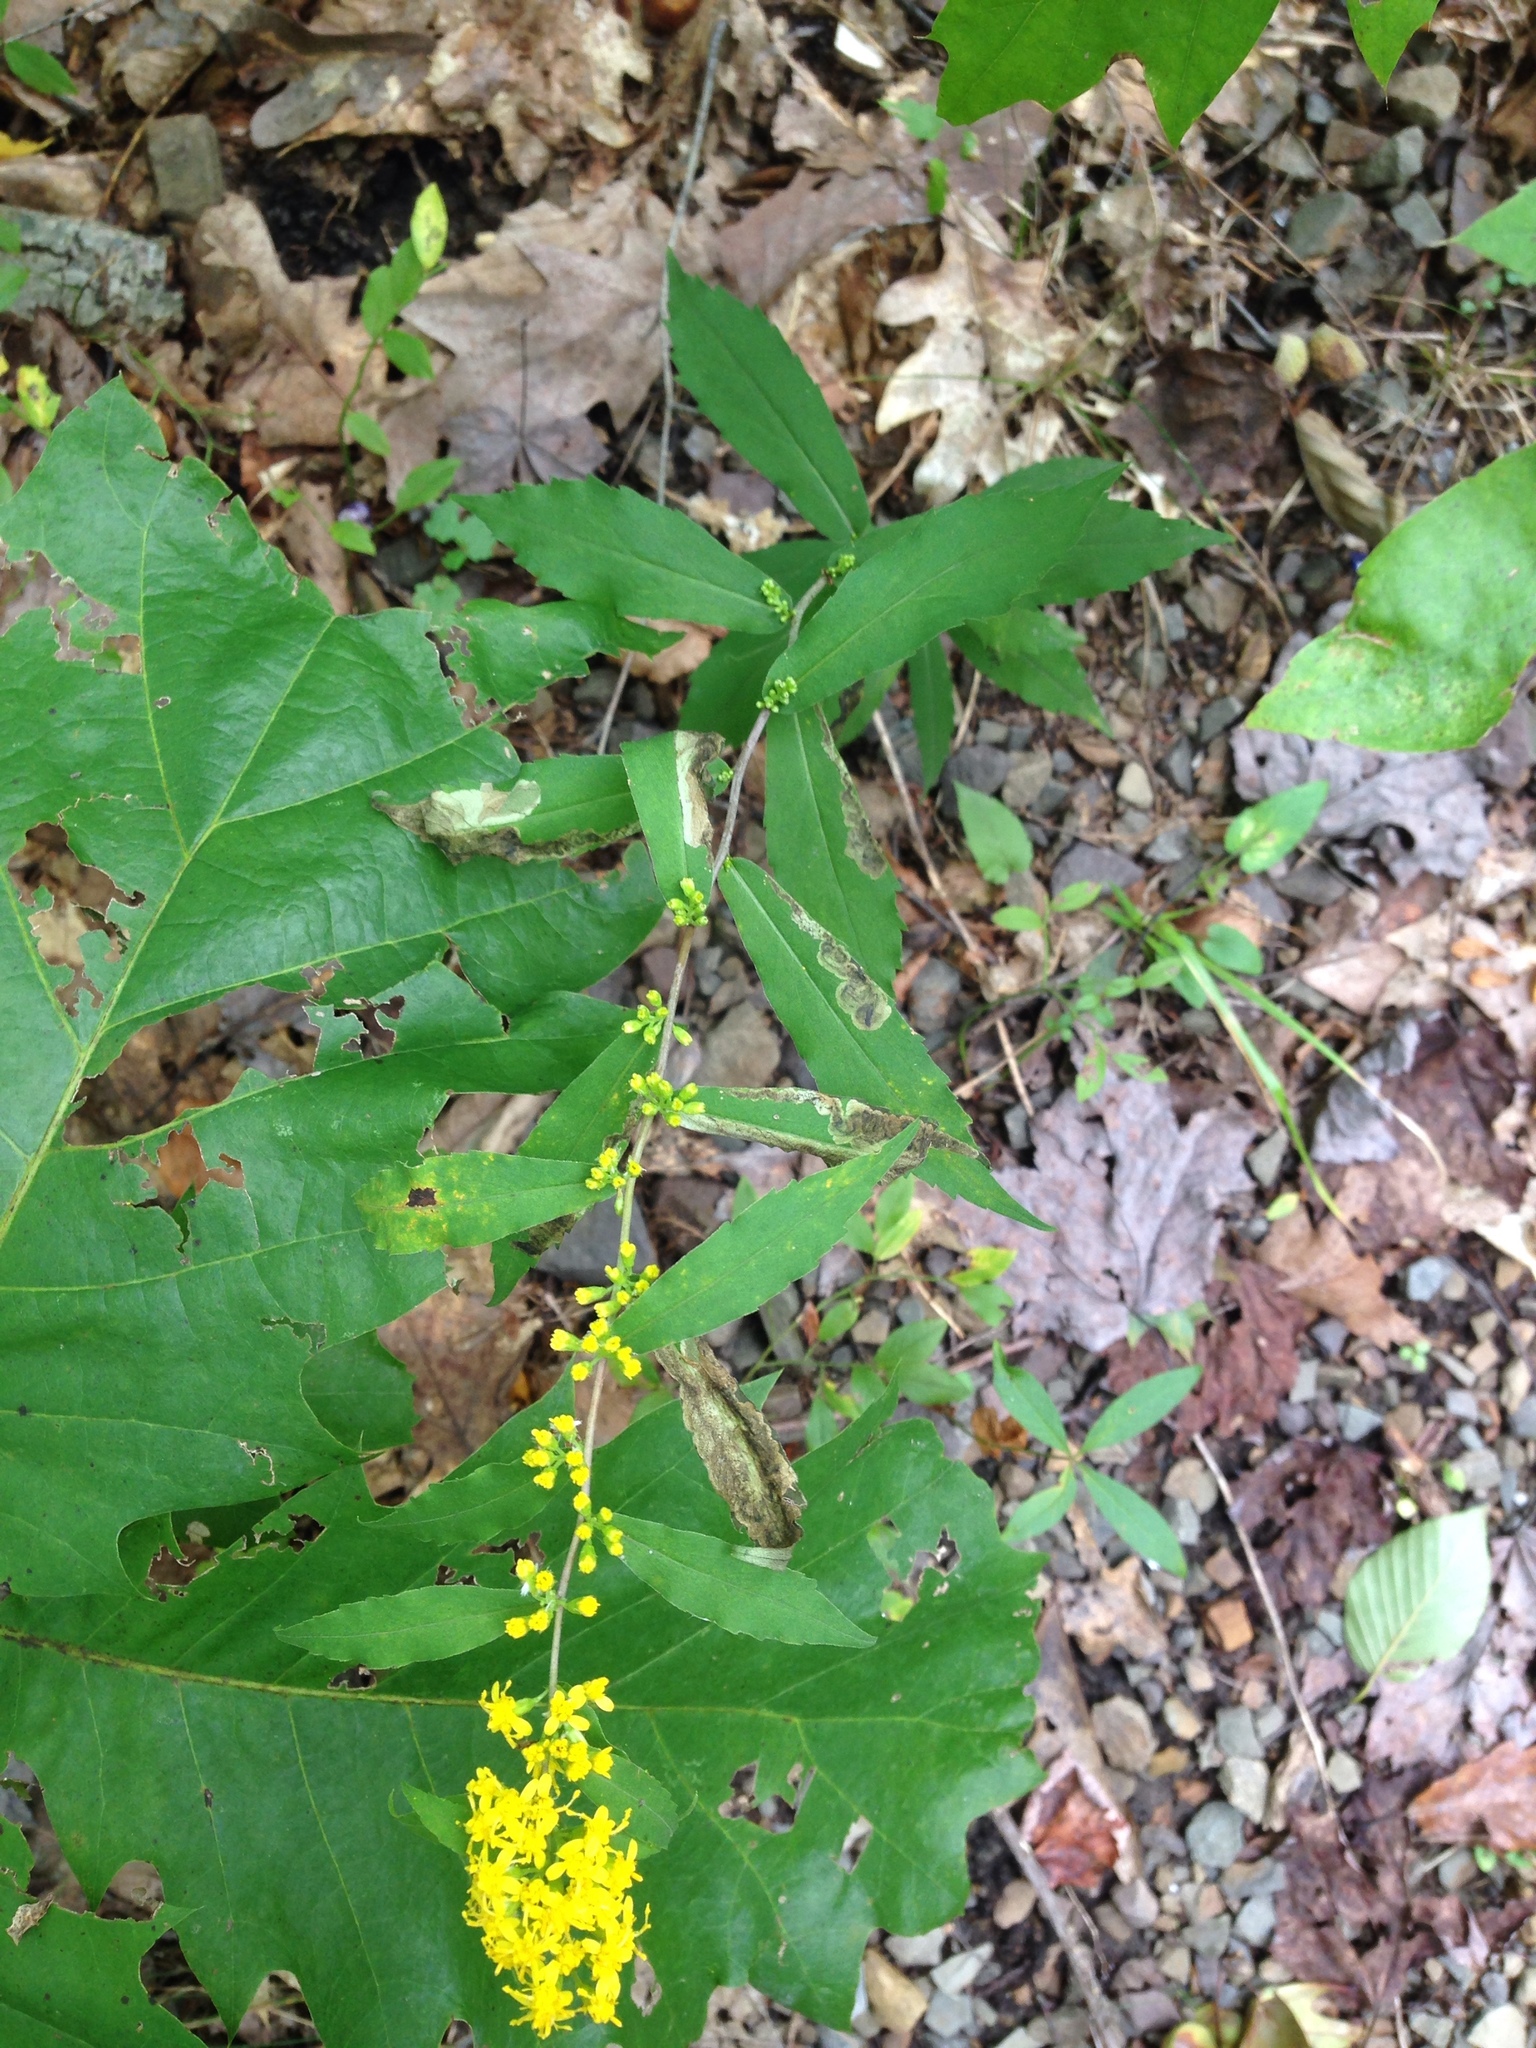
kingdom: Plantae
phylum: Tracheophyta
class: Magnoliopsida
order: Asterales
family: Asteraceae
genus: Solidago
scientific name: Solidago caesia
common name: Woodland goldenrod
